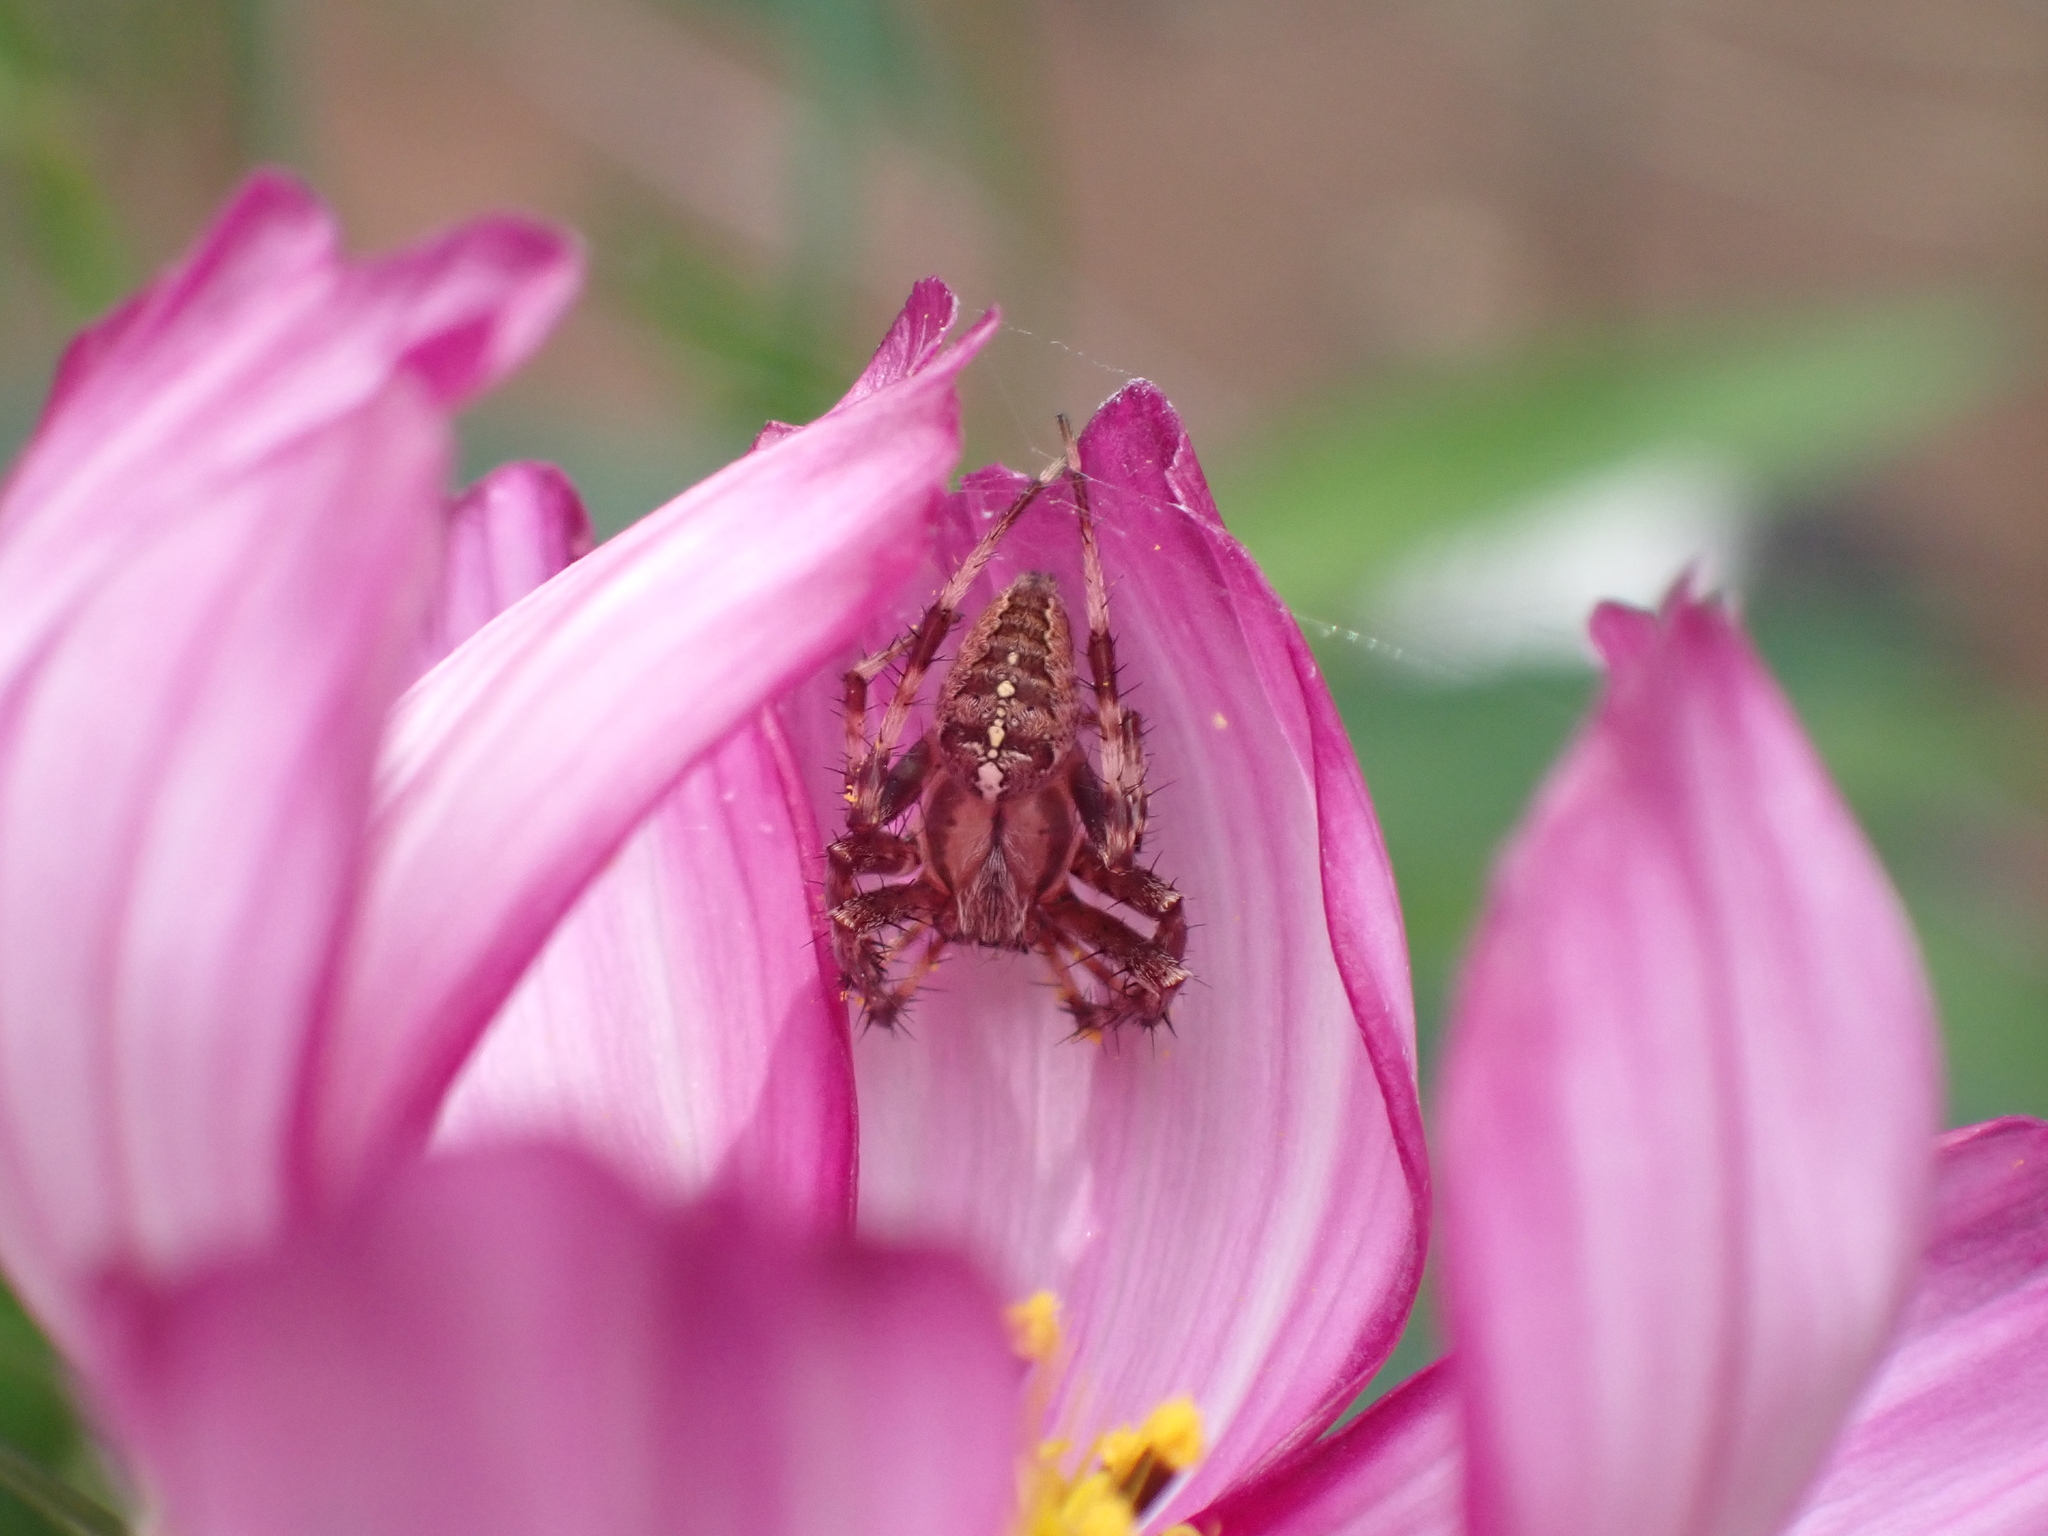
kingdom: Animalia
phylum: Arthropoda
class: Arachnida
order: Araneae
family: Araneidae
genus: Araneus
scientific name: Araneus diadematus
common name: Cross orbweaver
